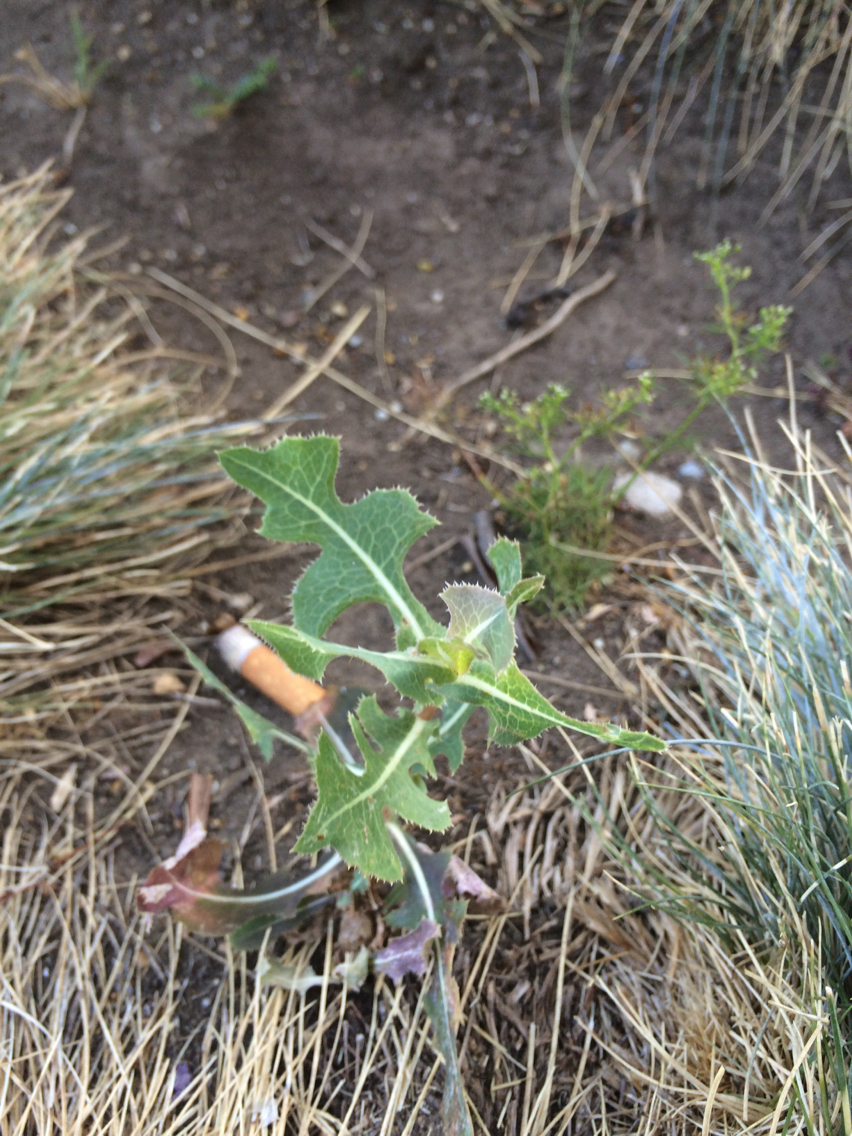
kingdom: Plantae
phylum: Tracheophyta
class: Magnoliopsida
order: Asterales
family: Asteraceae
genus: Lactuca
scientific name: Lactuca serriola
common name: Prickly lettuce
